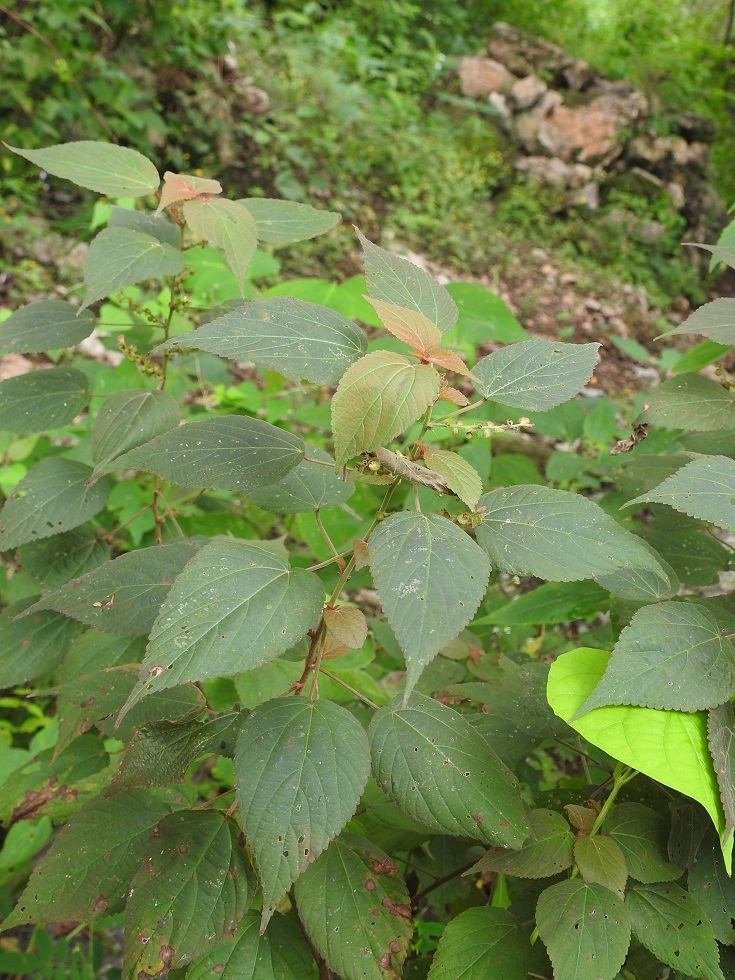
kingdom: Plantae
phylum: Tracheophyta
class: Magnoliopsida
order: Malpighiales
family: Euphorbiaceae
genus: Acalypha
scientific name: Acalypha macrostachya
